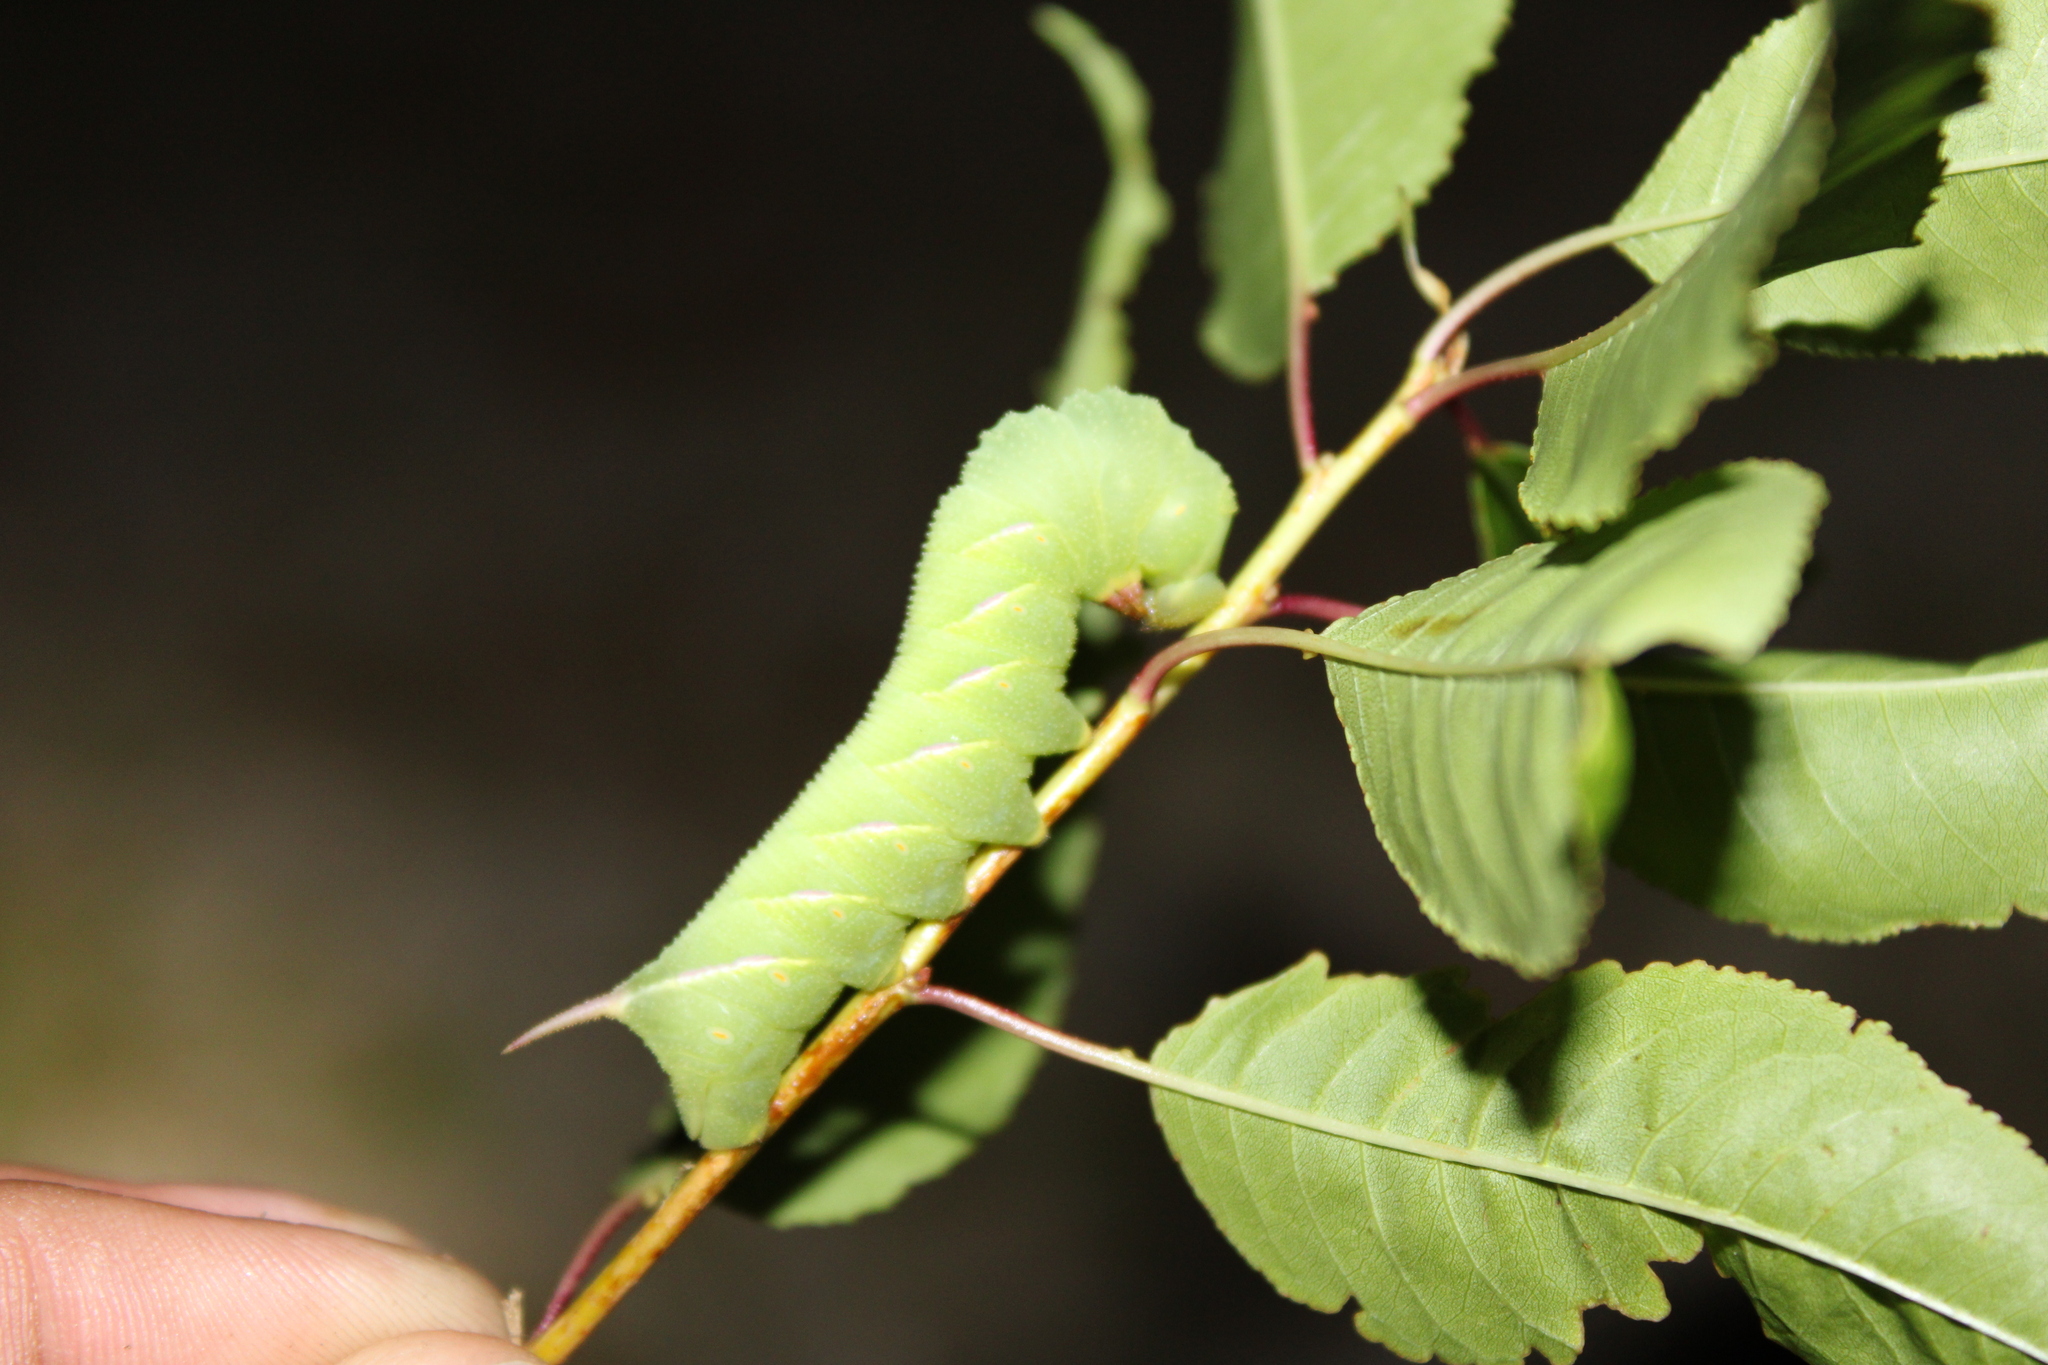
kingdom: Animalia
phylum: Arthropoda
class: Insecta
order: Lepidoptera
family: Sphingidae
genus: Sphinx
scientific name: Sphinx drupiferarum
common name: Wild cherry sphinx
